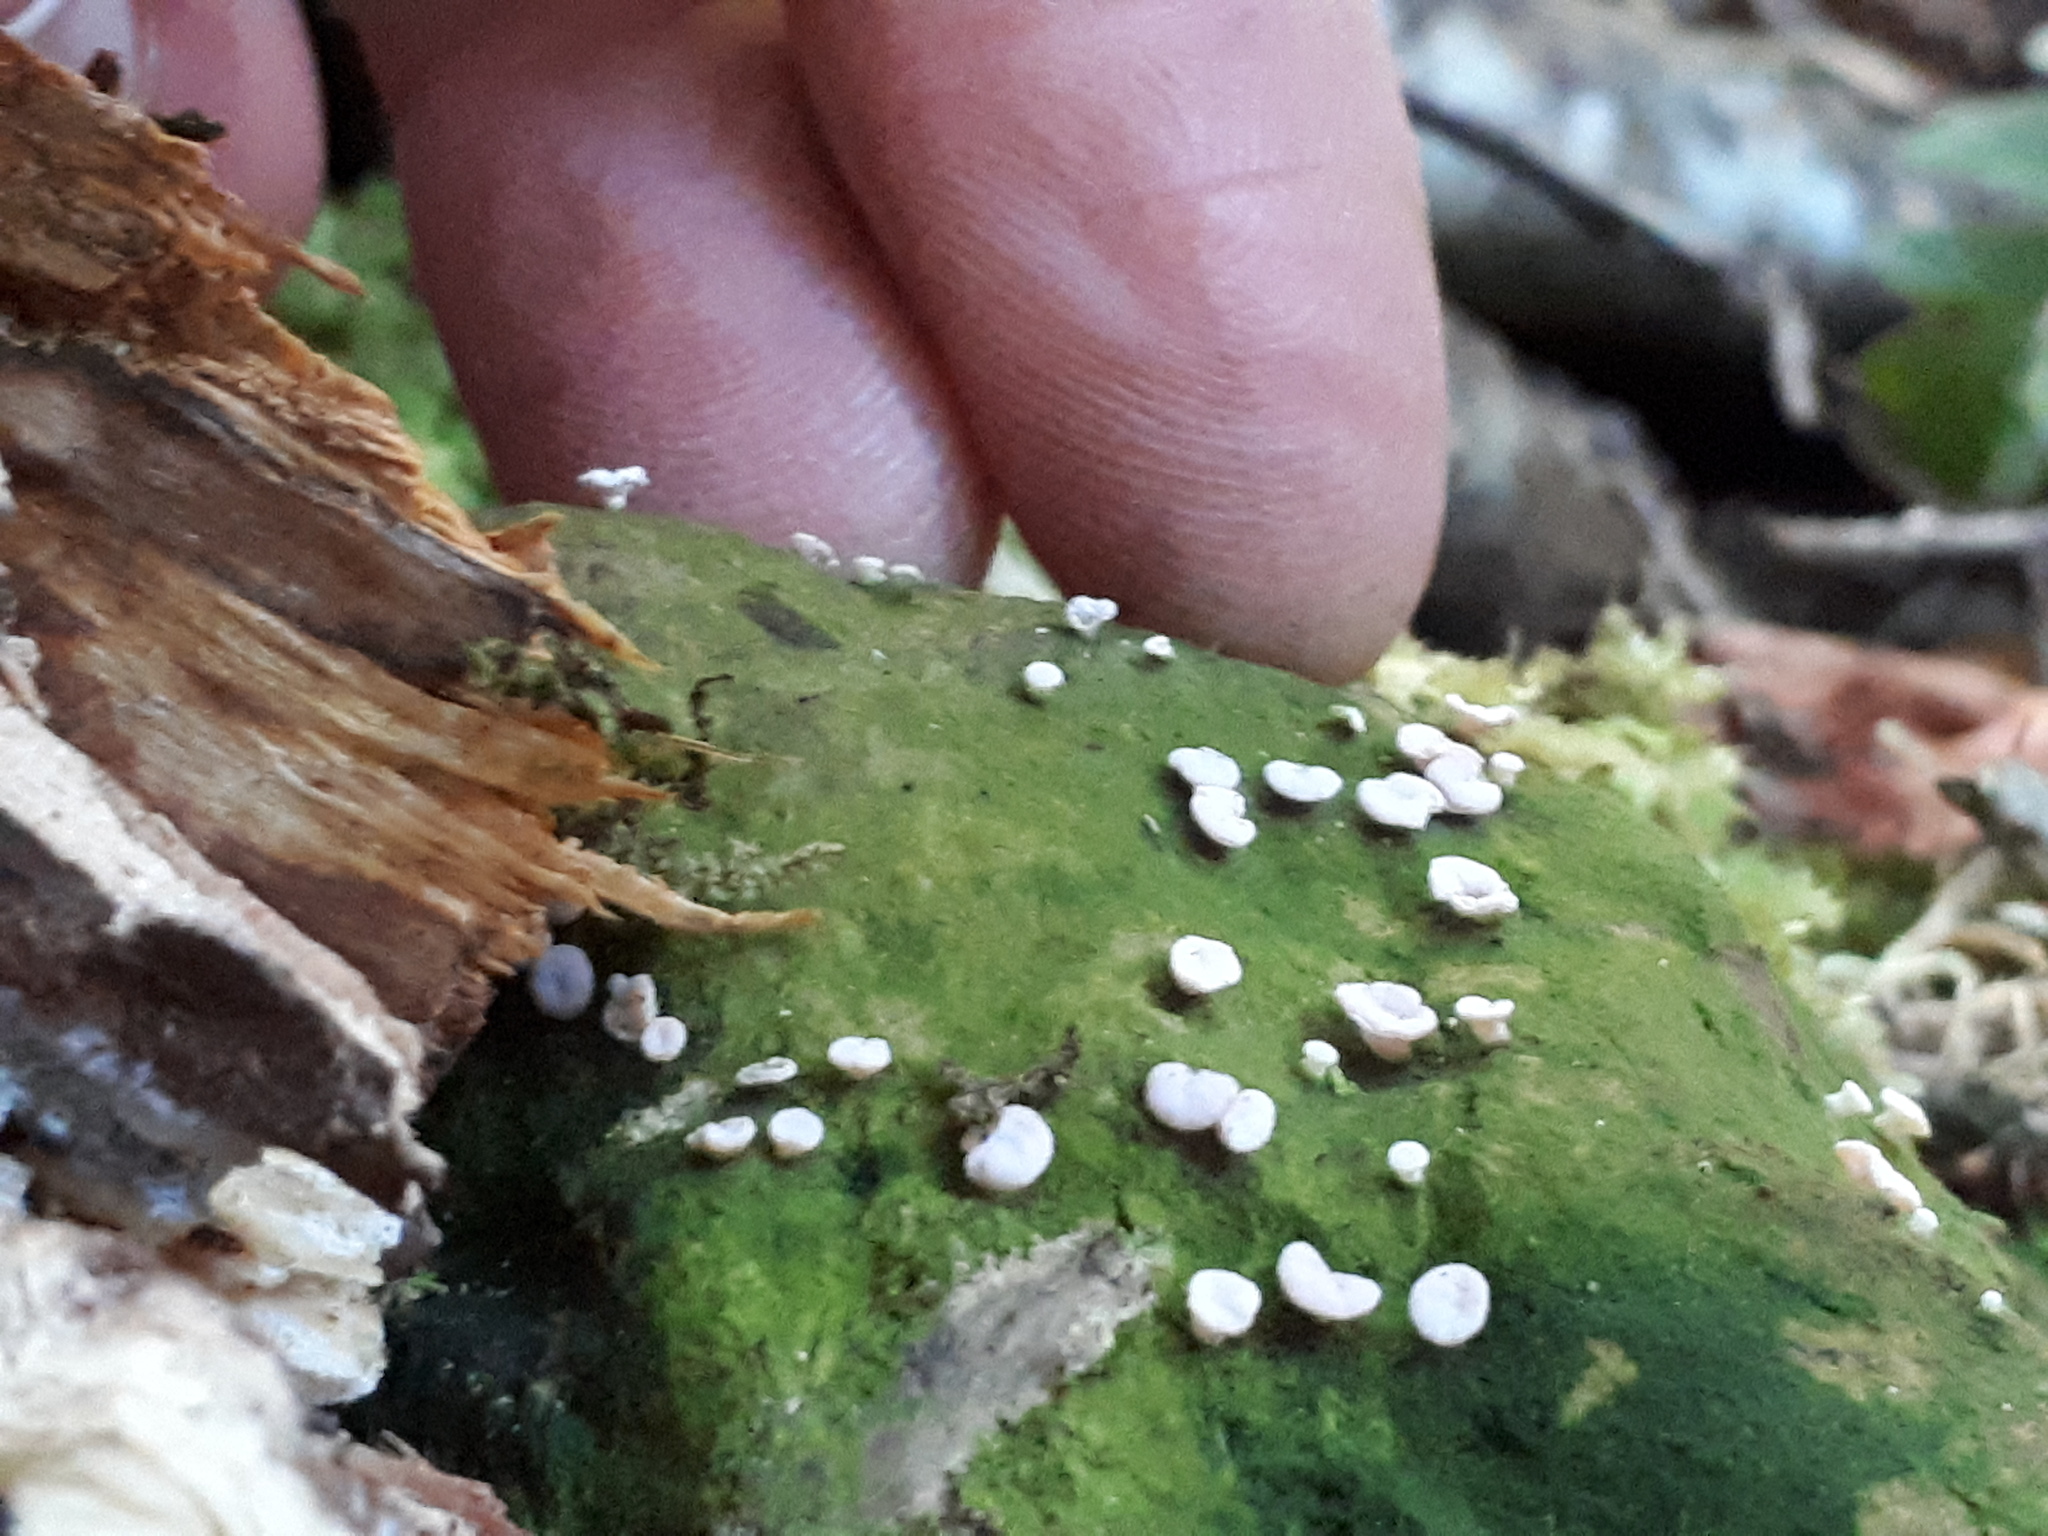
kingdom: Fungi
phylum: Ascomycota
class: Lecanoromycetes
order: Pertusariales
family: Icmadophilaceae
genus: Dibaeis
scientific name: Dibaeis absoluta
